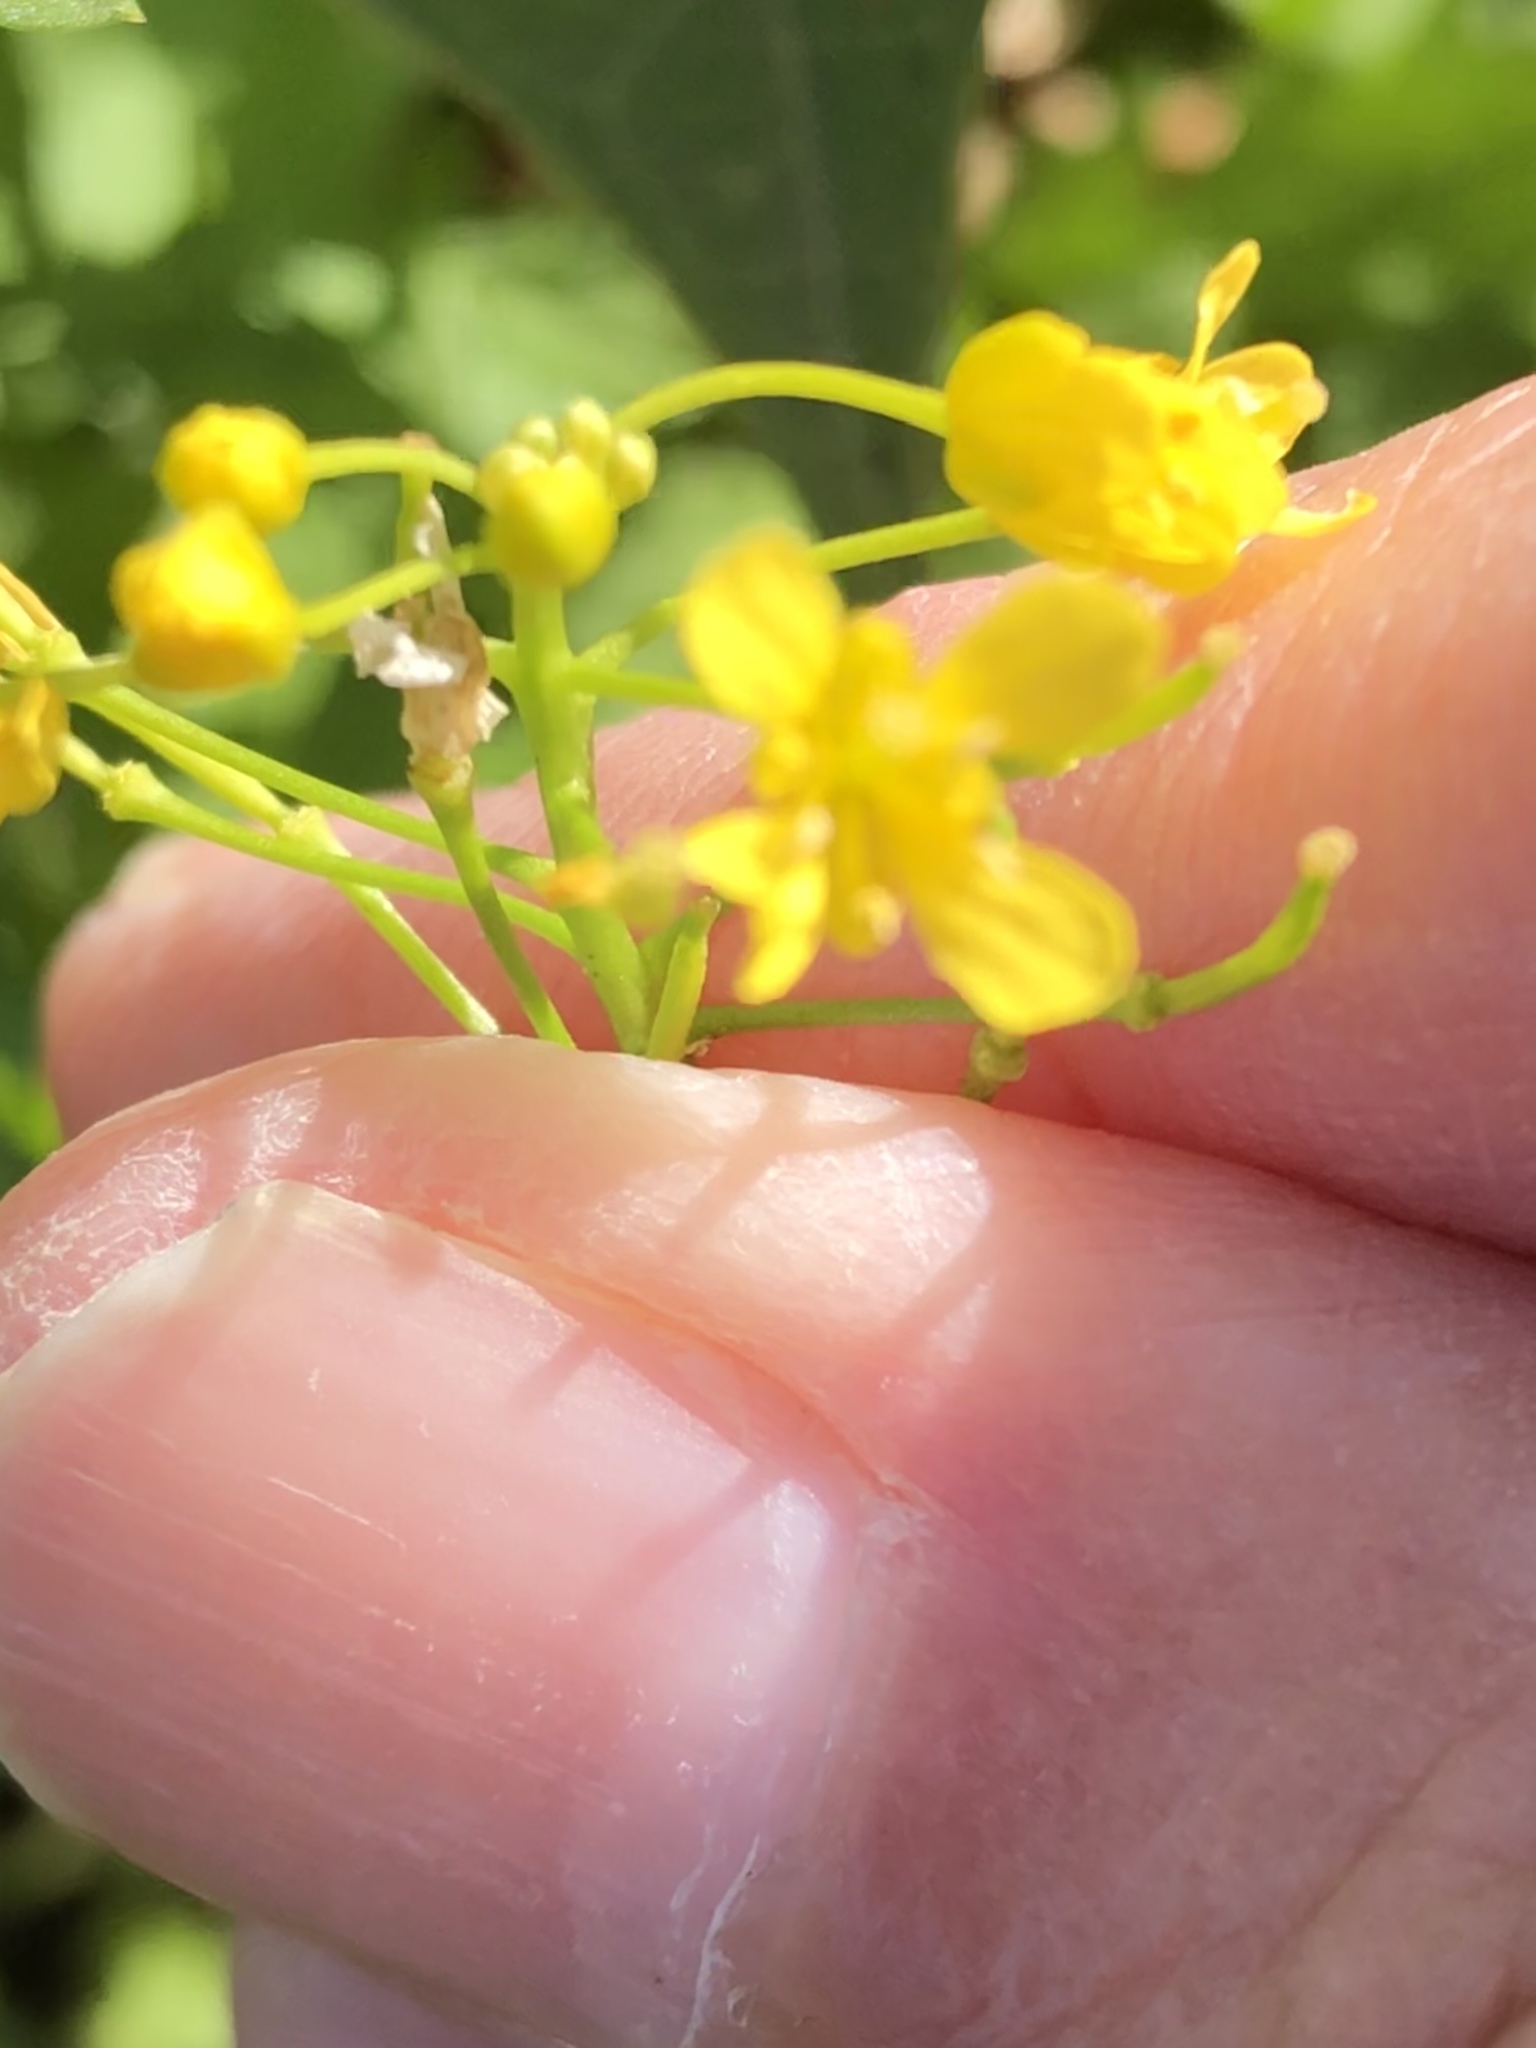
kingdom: Plantae
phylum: Tracheophyta
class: Magnoliopsida
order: Brassicales
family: Brassicaceae
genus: Rorippa
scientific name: Rorippa sylvestris
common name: Creeping yellowcress
